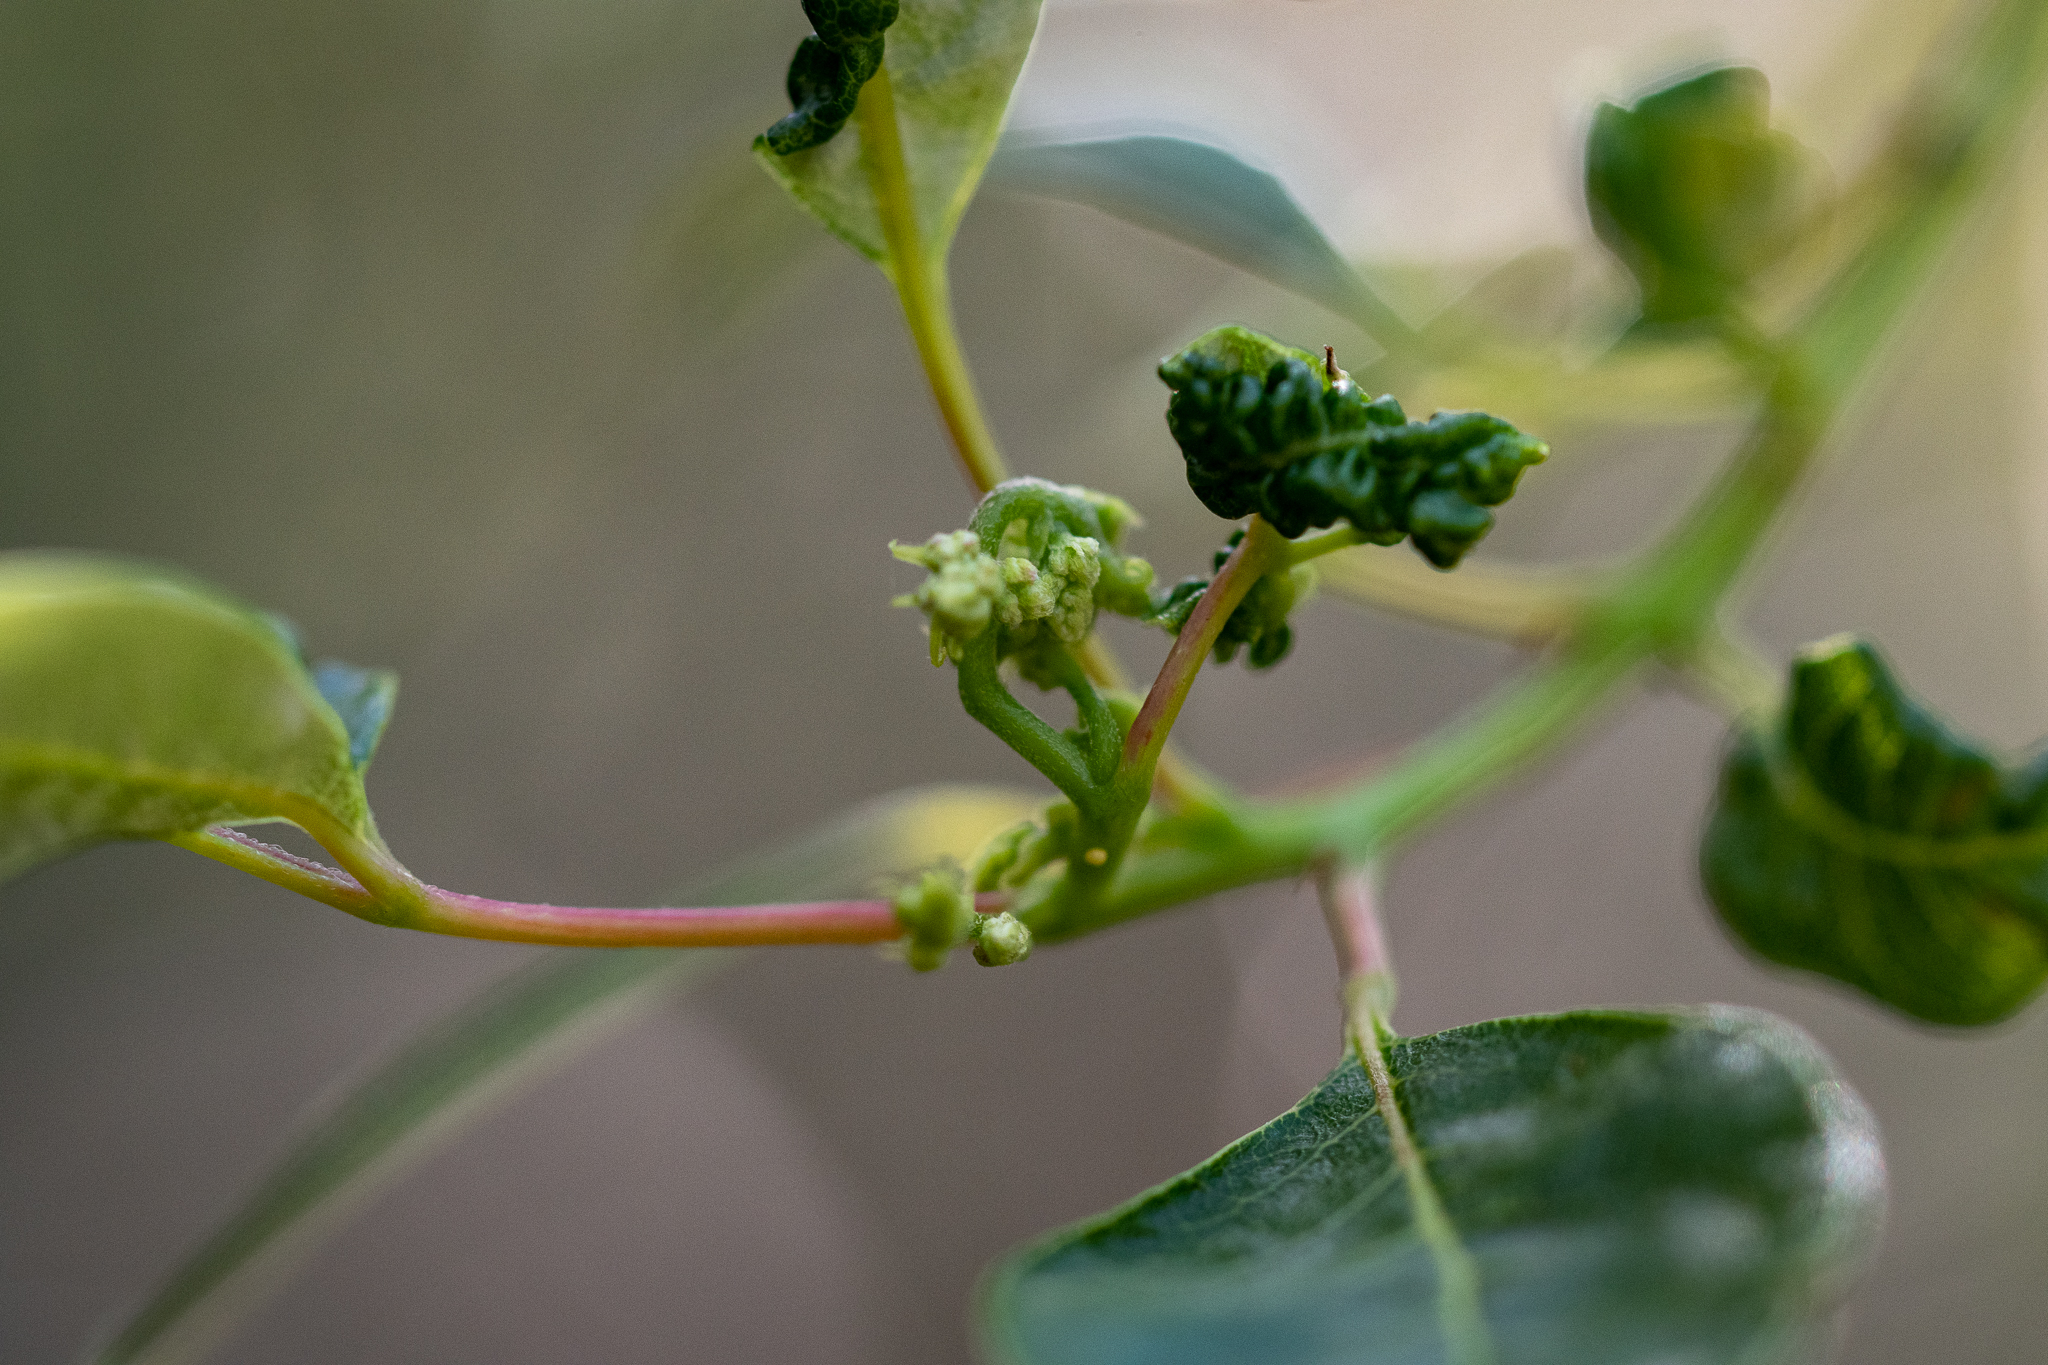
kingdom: Plantae
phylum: Tracheophyta
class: Magnoliopsida
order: Sapindales
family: Anacardiaceae
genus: Searsia
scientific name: Searsia tomentosa
